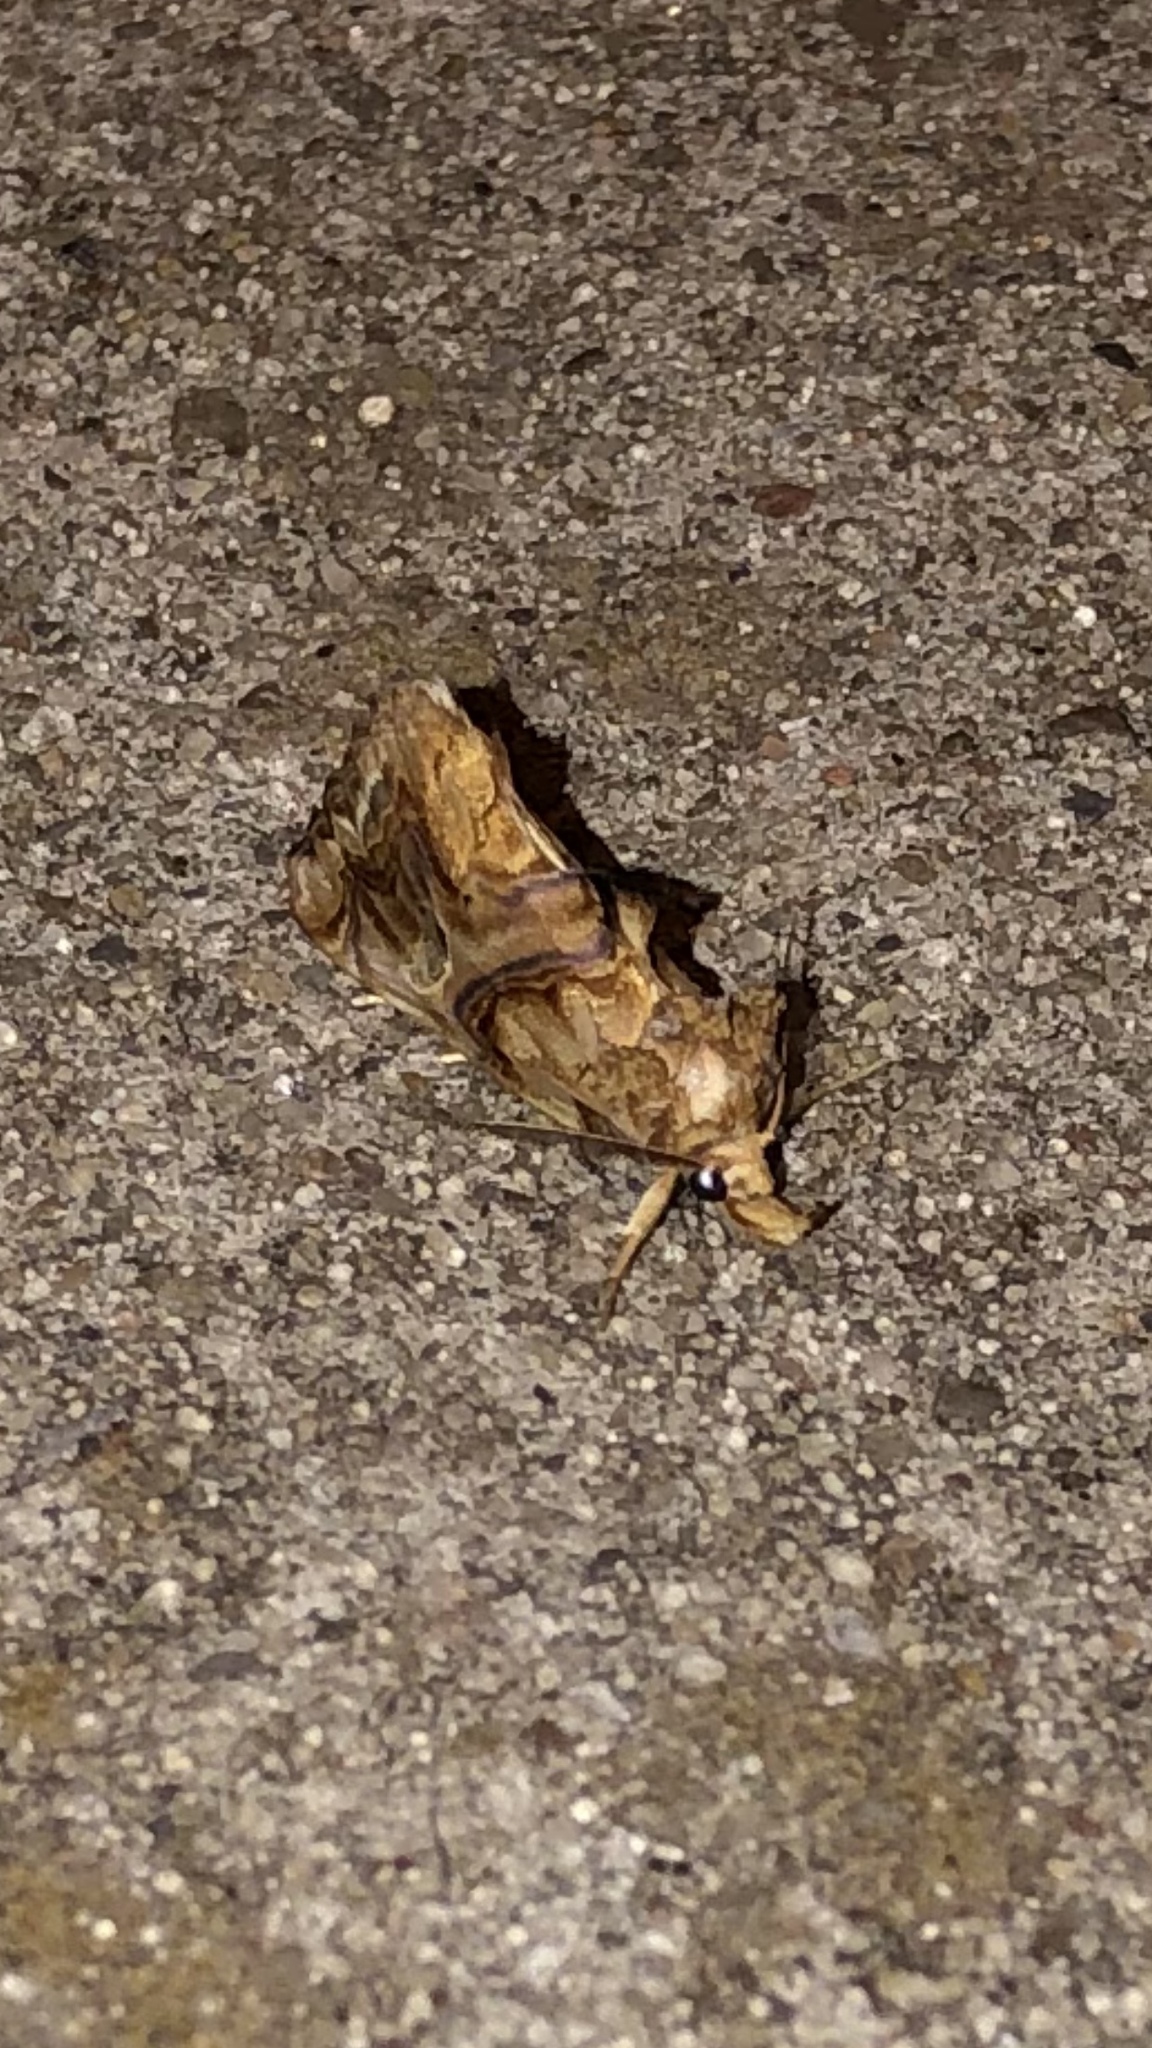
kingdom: Animalia
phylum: Arthropoda
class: Insecta
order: Lepidoptera
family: Erebidae
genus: Plusiodonta
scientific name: Plusiodonta compressipalpis
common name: Moonseed moth
